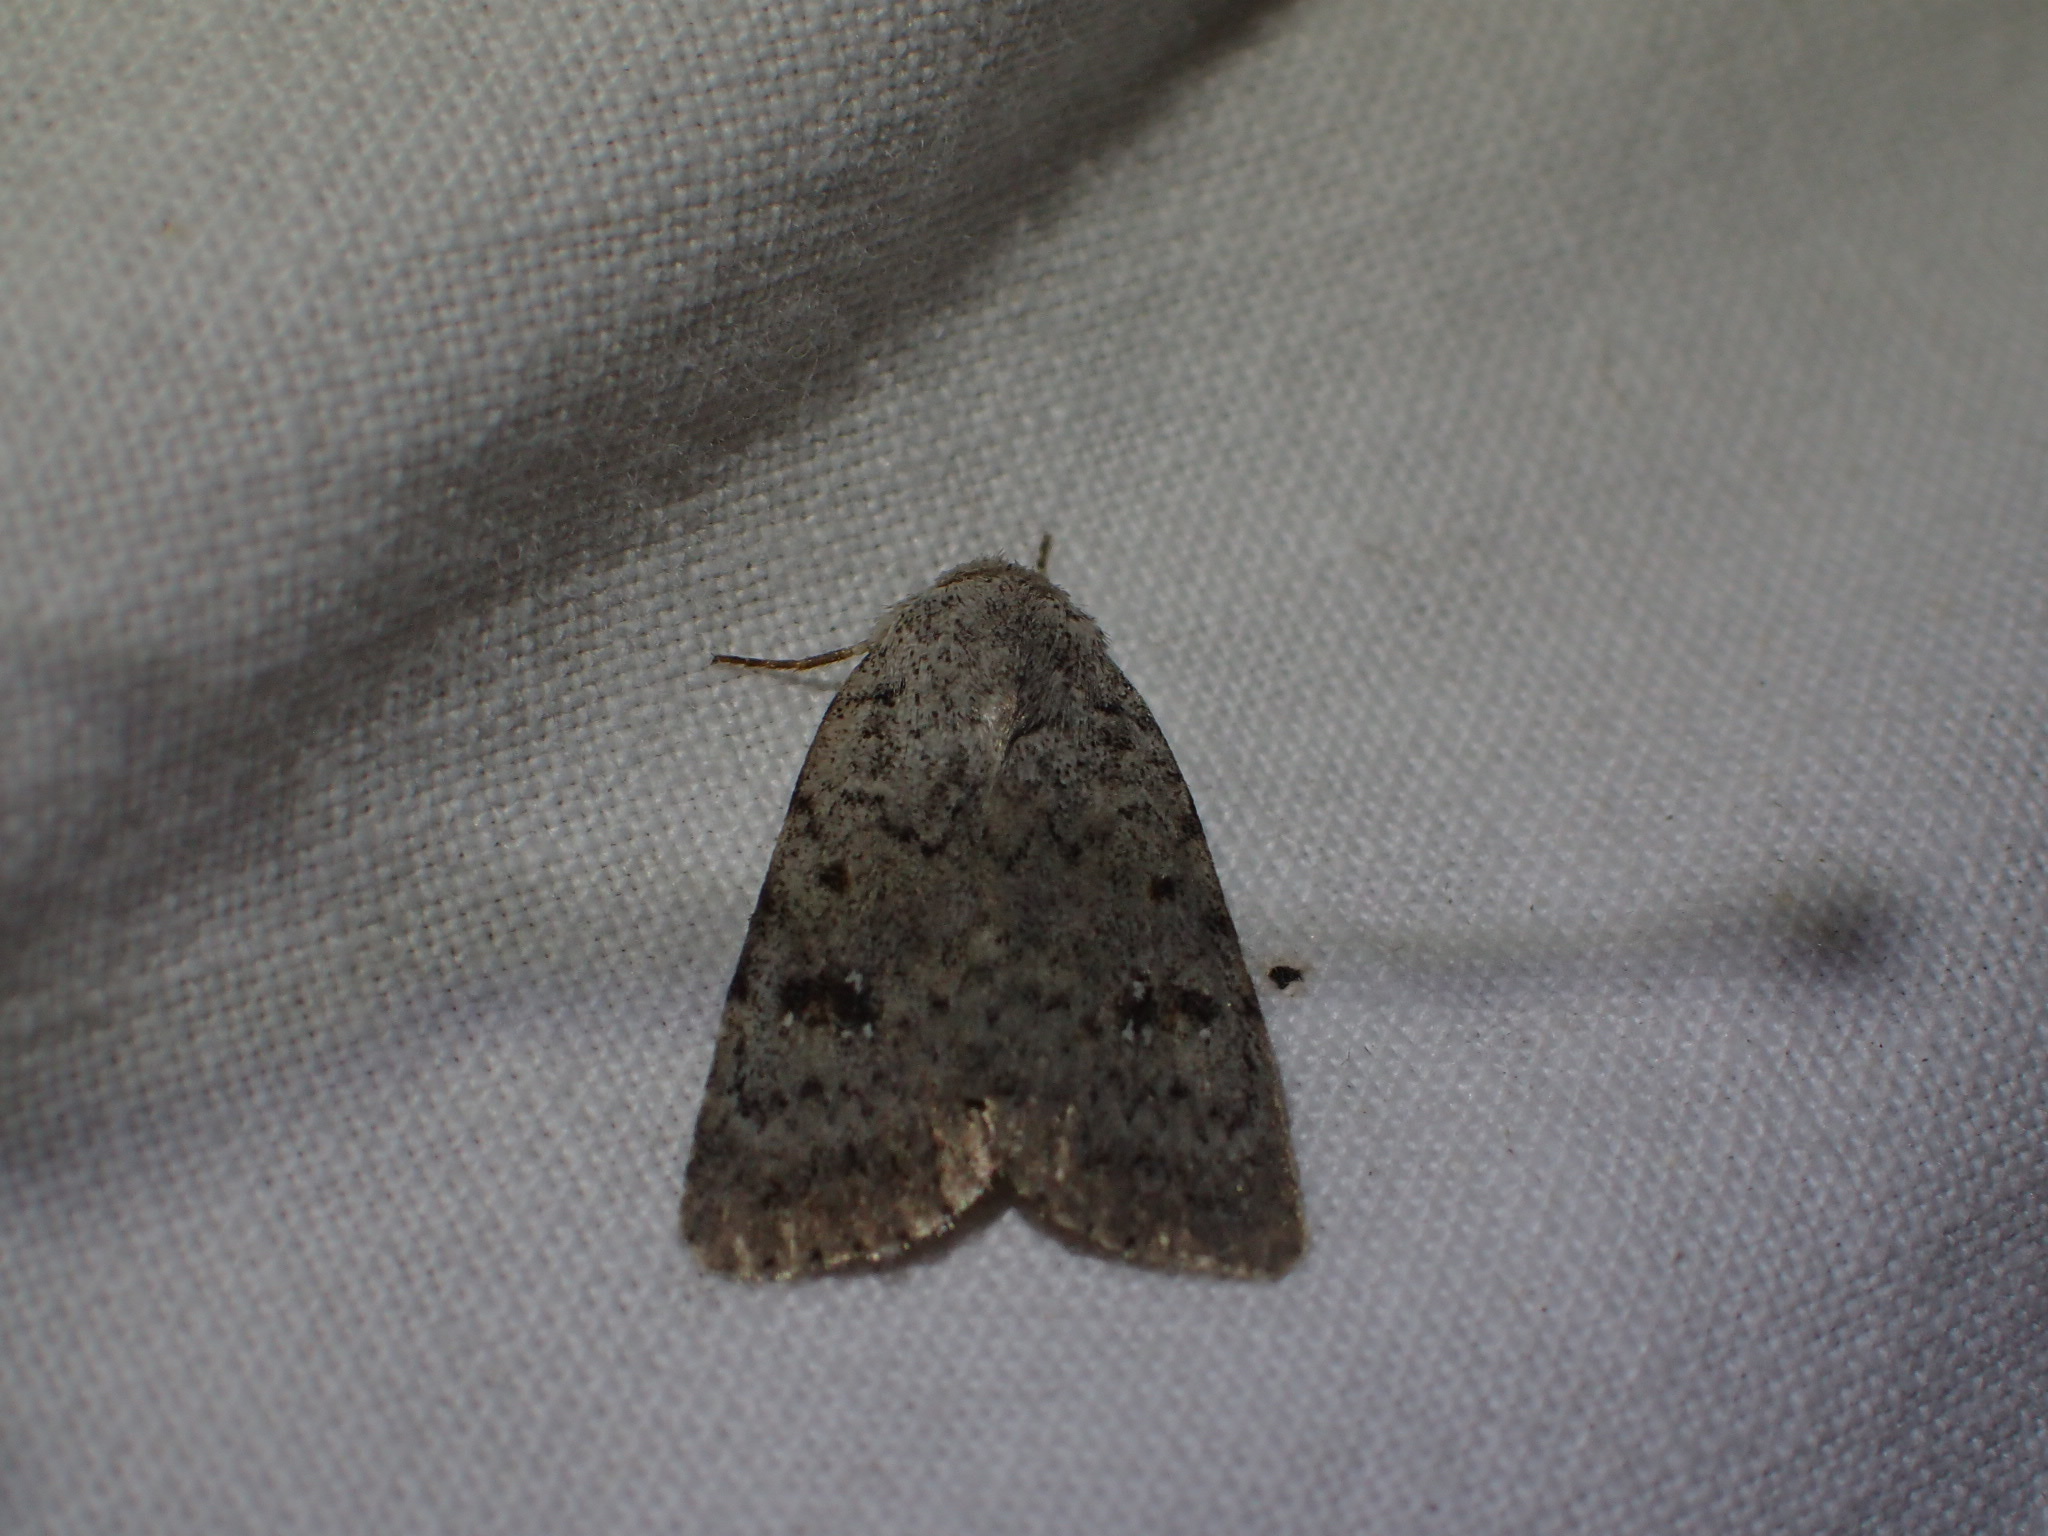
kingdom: Animalia
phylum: Arthropoda
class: Insecta
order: Lepidoptera
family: Noctuidae
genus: Caradrina
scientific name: Caradrina multifera
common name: Speckled rustic
